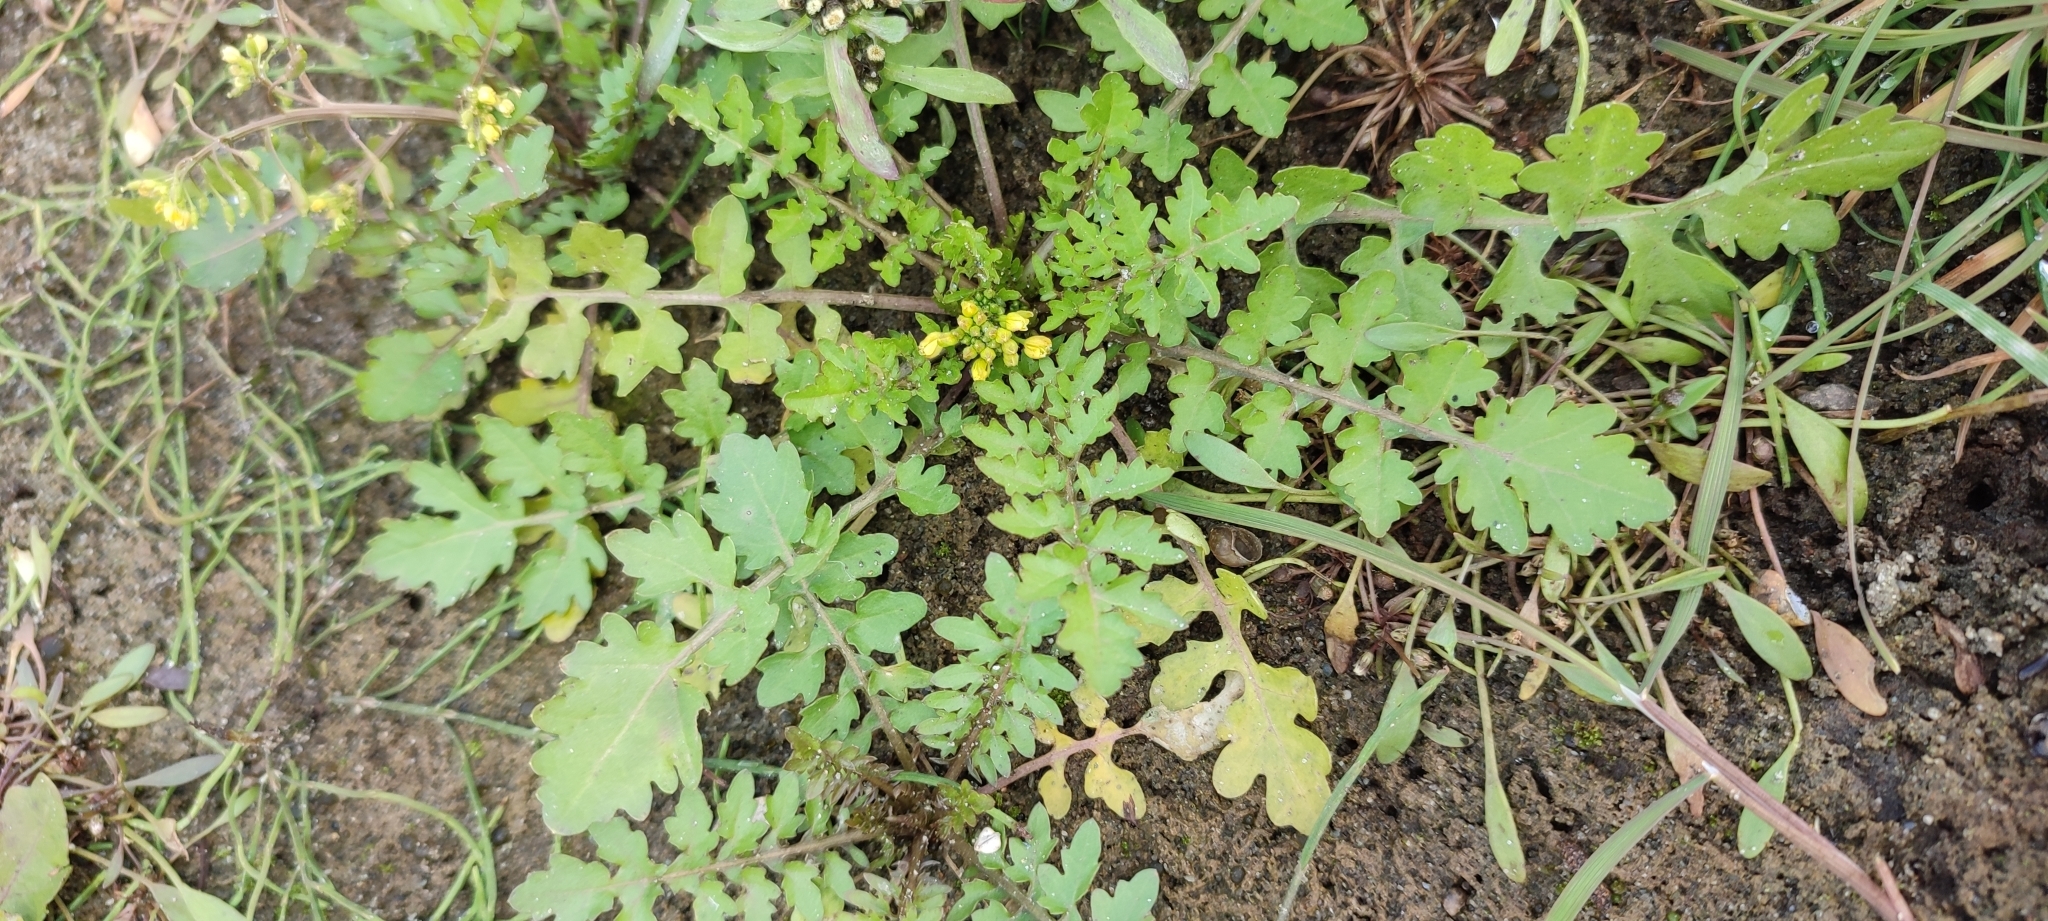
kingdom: Plantae
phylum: Tracheophyta
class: Magnoliopsida
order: Brassicales
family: Brassicaceae
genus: Rorippa
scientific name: Rorippa palustris
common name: Marsh yellow-cress
